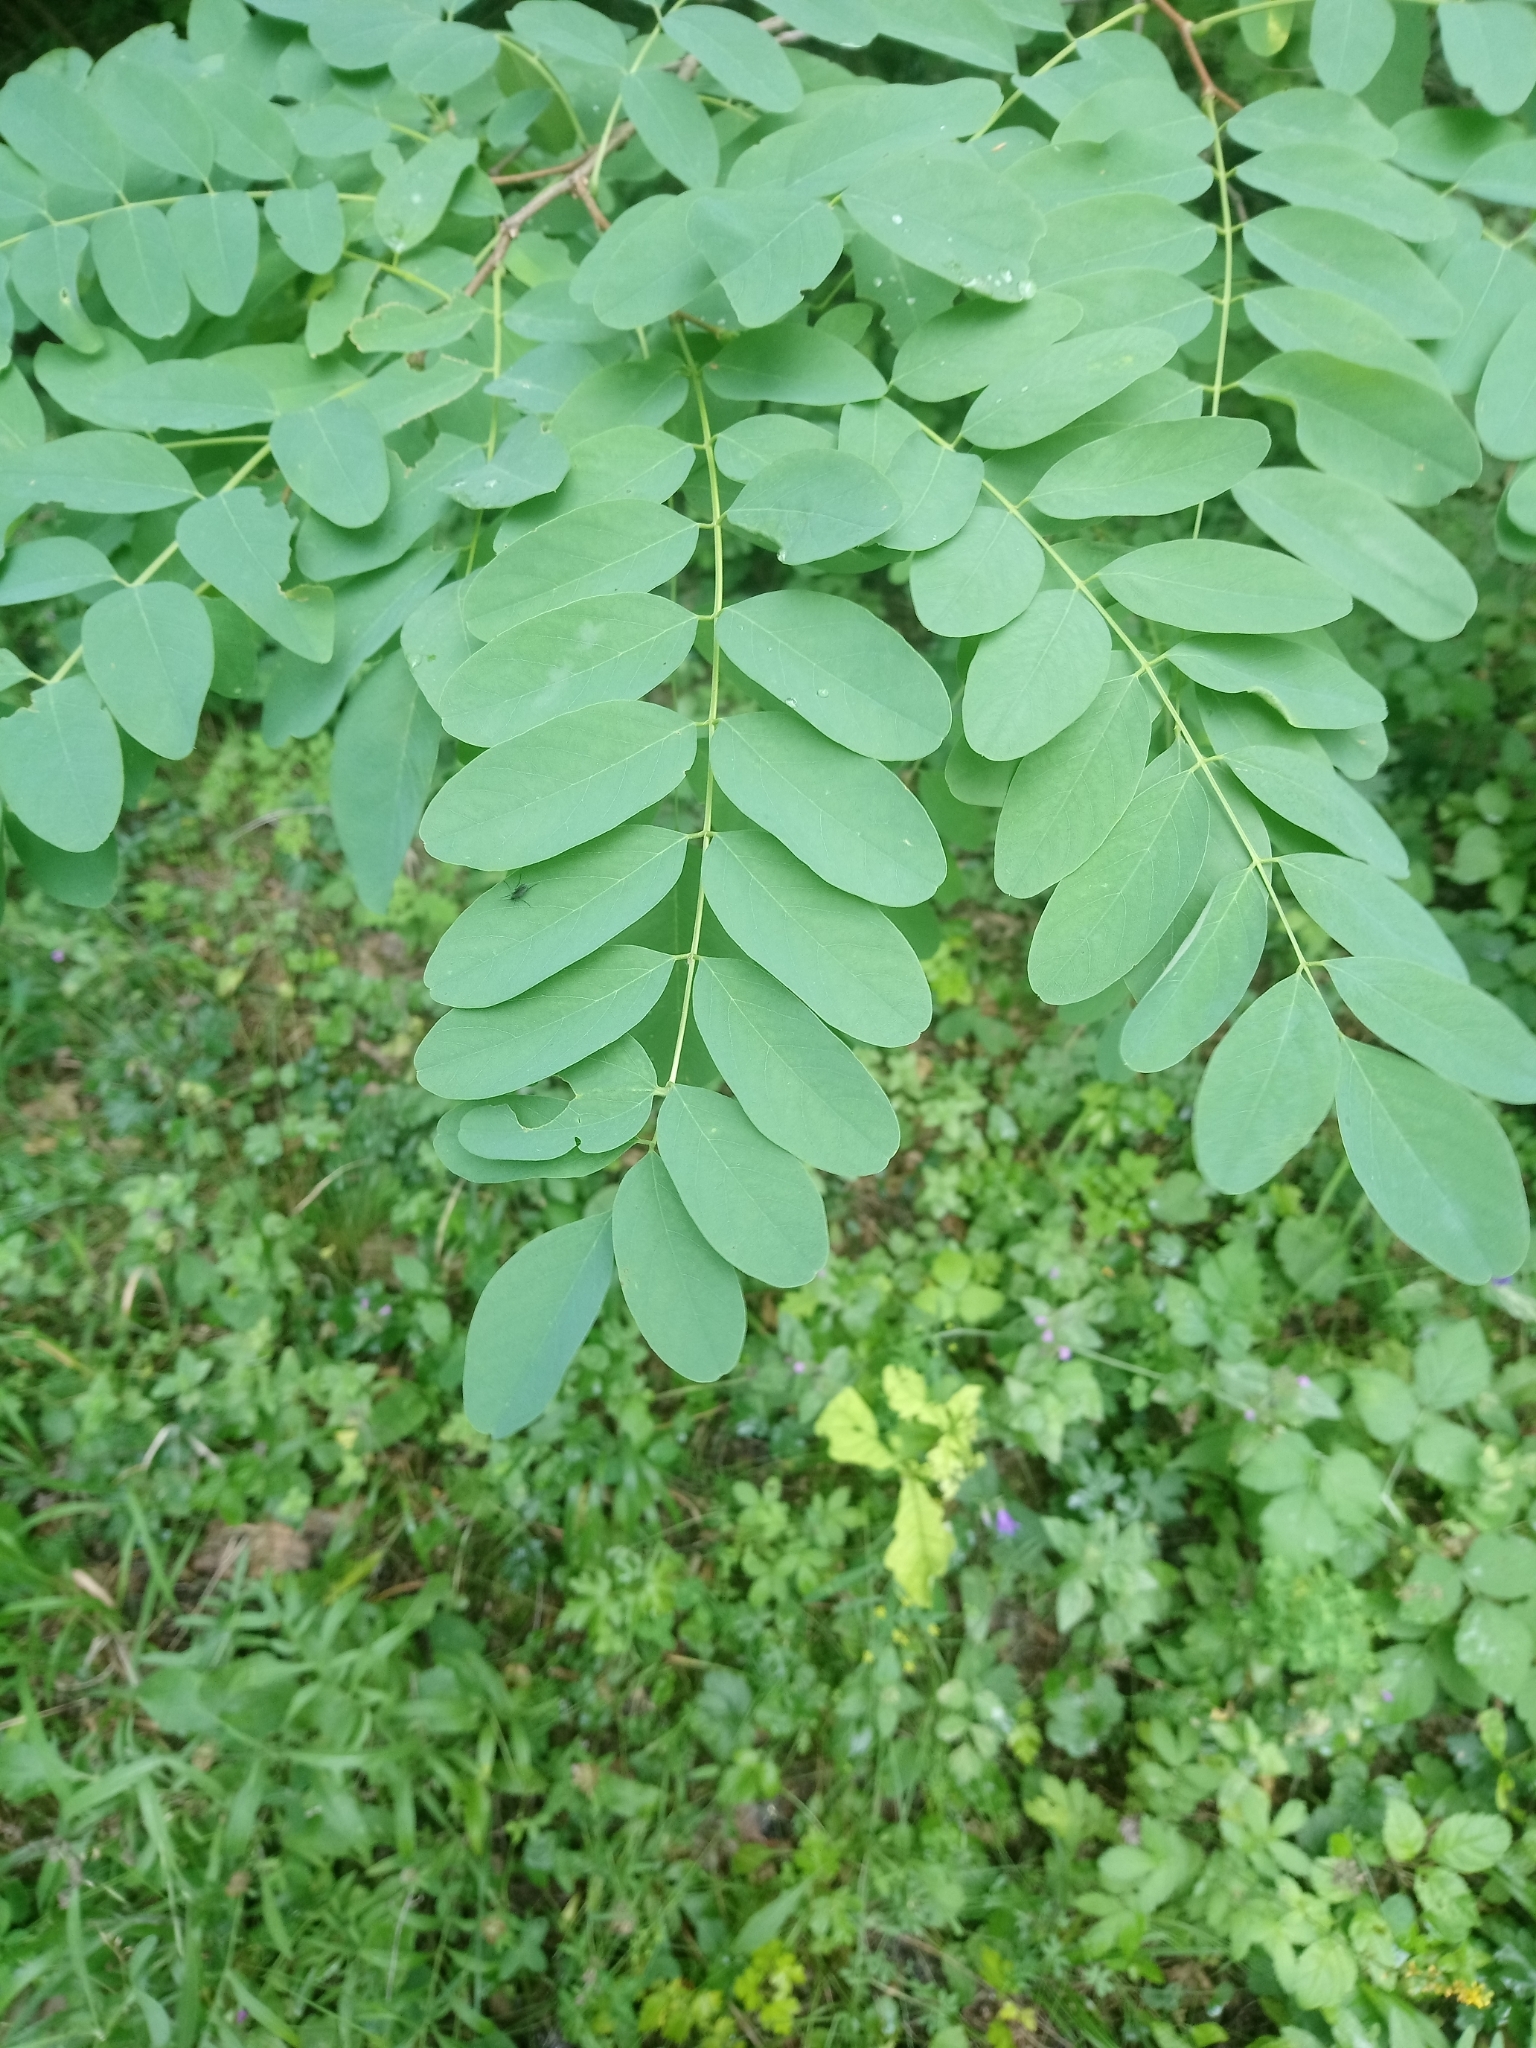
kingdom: Plantae
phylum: Tracheophyta
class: Magnoliopsida
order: Fabales
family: Fabaceae
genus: Robinia
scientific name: Robinia pseudoacacia
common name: Black locust
